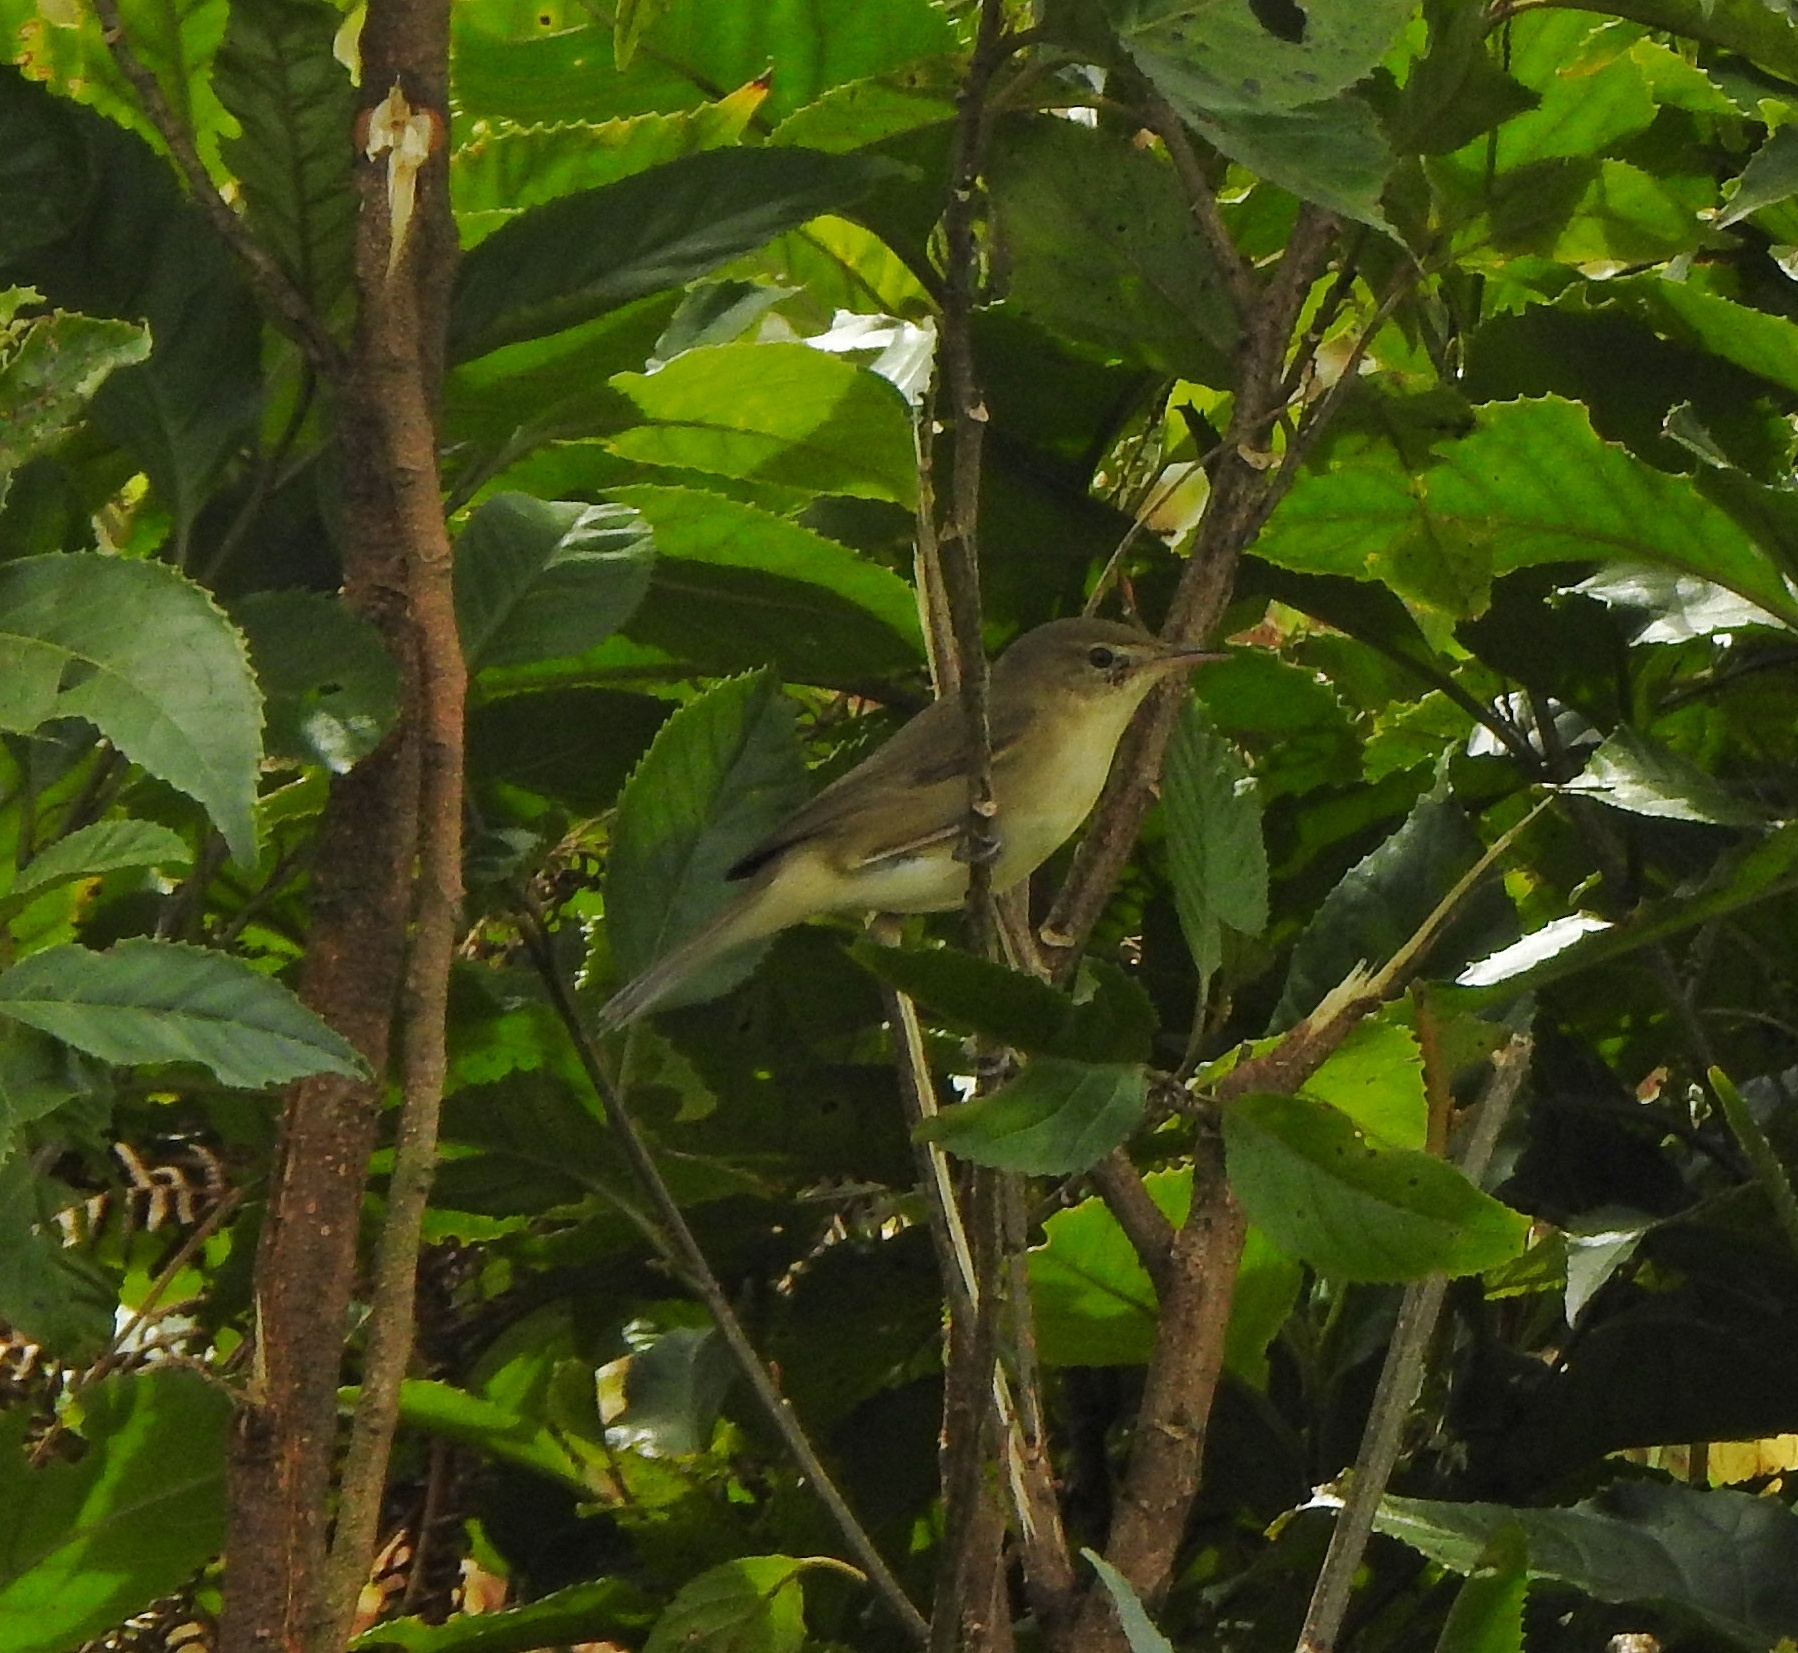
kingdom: Animalia
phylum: Chordata
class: Aves
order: Passeriformes
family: Acrocephalidae
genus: Acrocephalus
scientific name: Acrocephalus dumetorum
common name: Blyth's reed warbler
